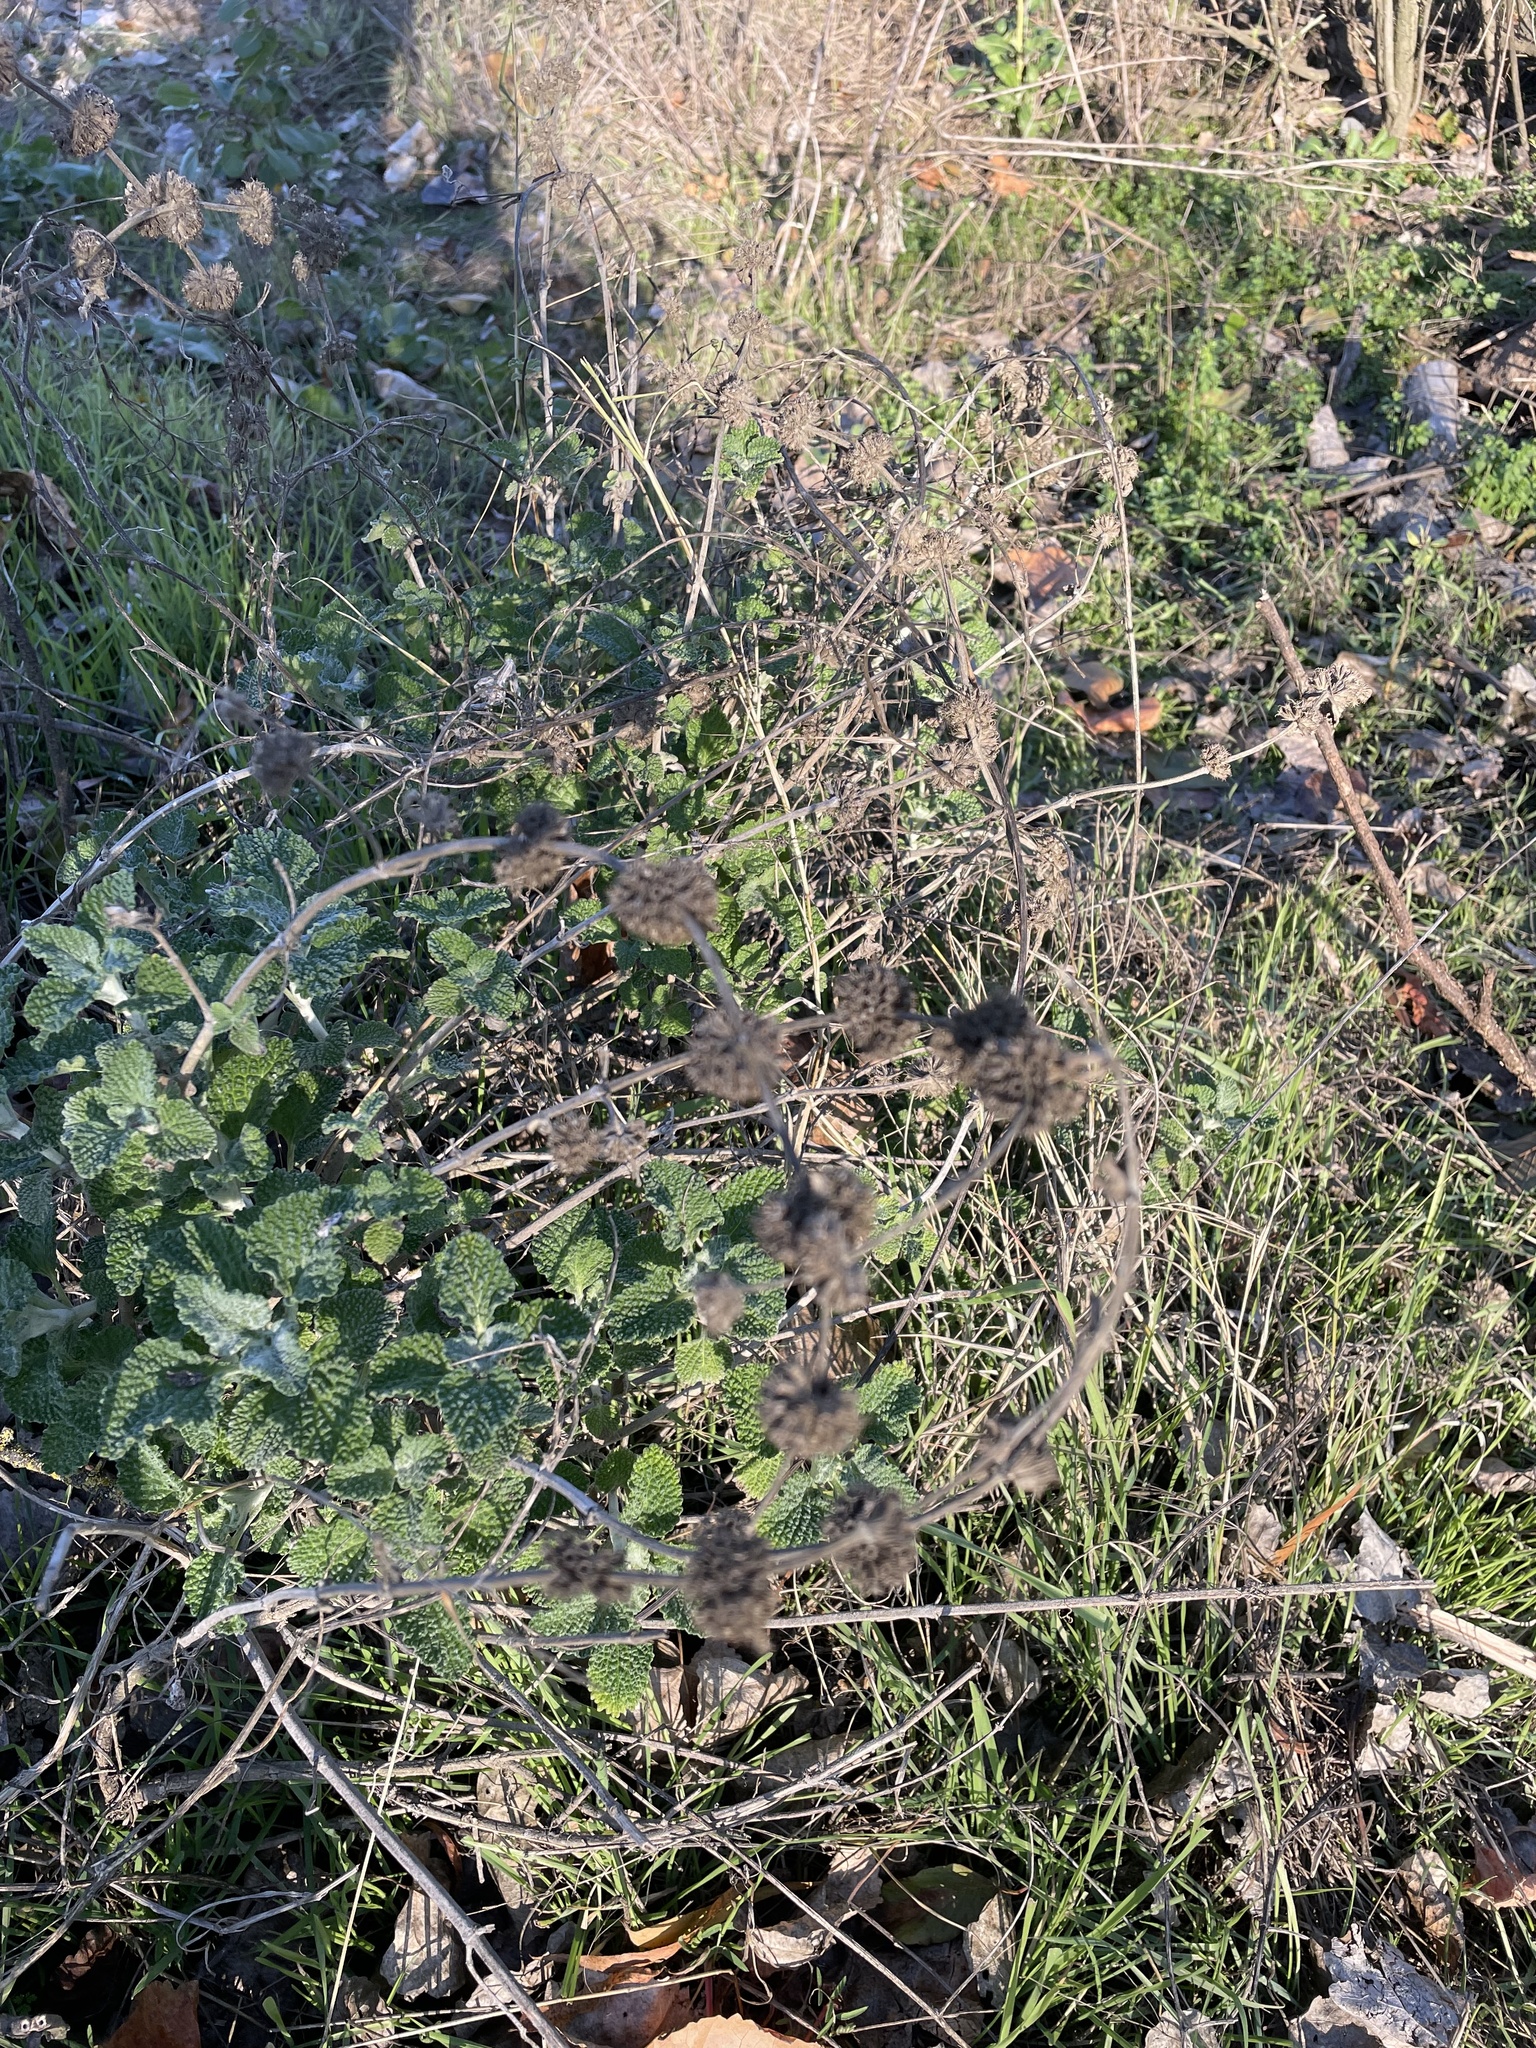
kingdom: Plantae
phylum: Tracheophyta
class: Magnoliopsida
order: Lamiales
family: Lamiaceae
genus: Marrubium
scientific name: Marrubium vulgare
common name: Horehound
